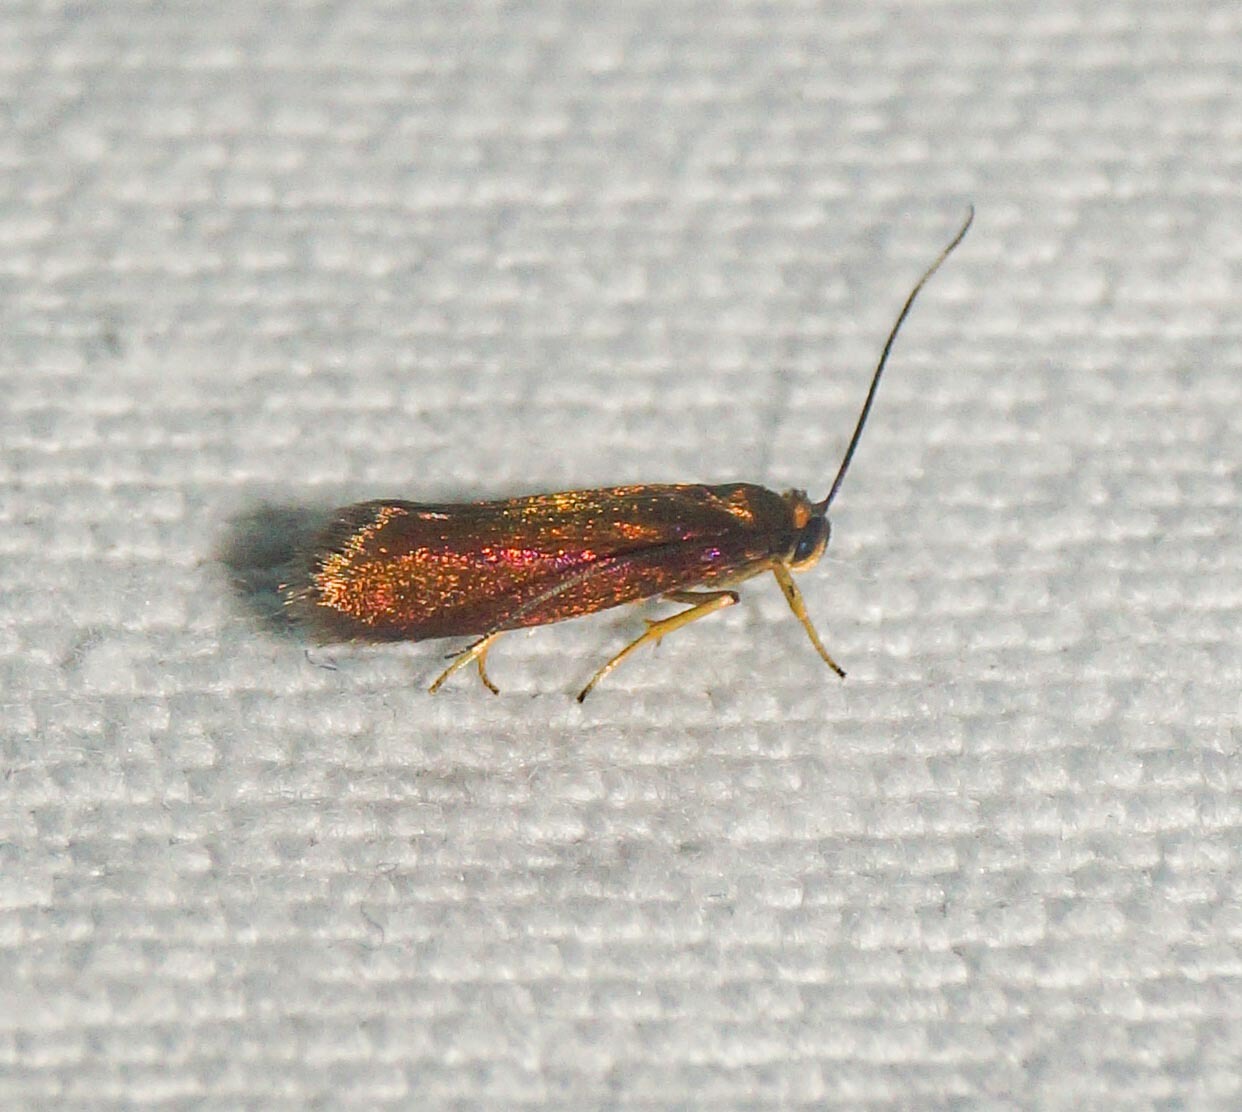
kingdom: Animalia
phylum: Arthropoda
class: Insecta
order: Lepidoptera
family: Roeslerstammiidae
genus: Roeslerstammia
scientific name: Roeslerstammia erxlebella
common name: Copper ermel
